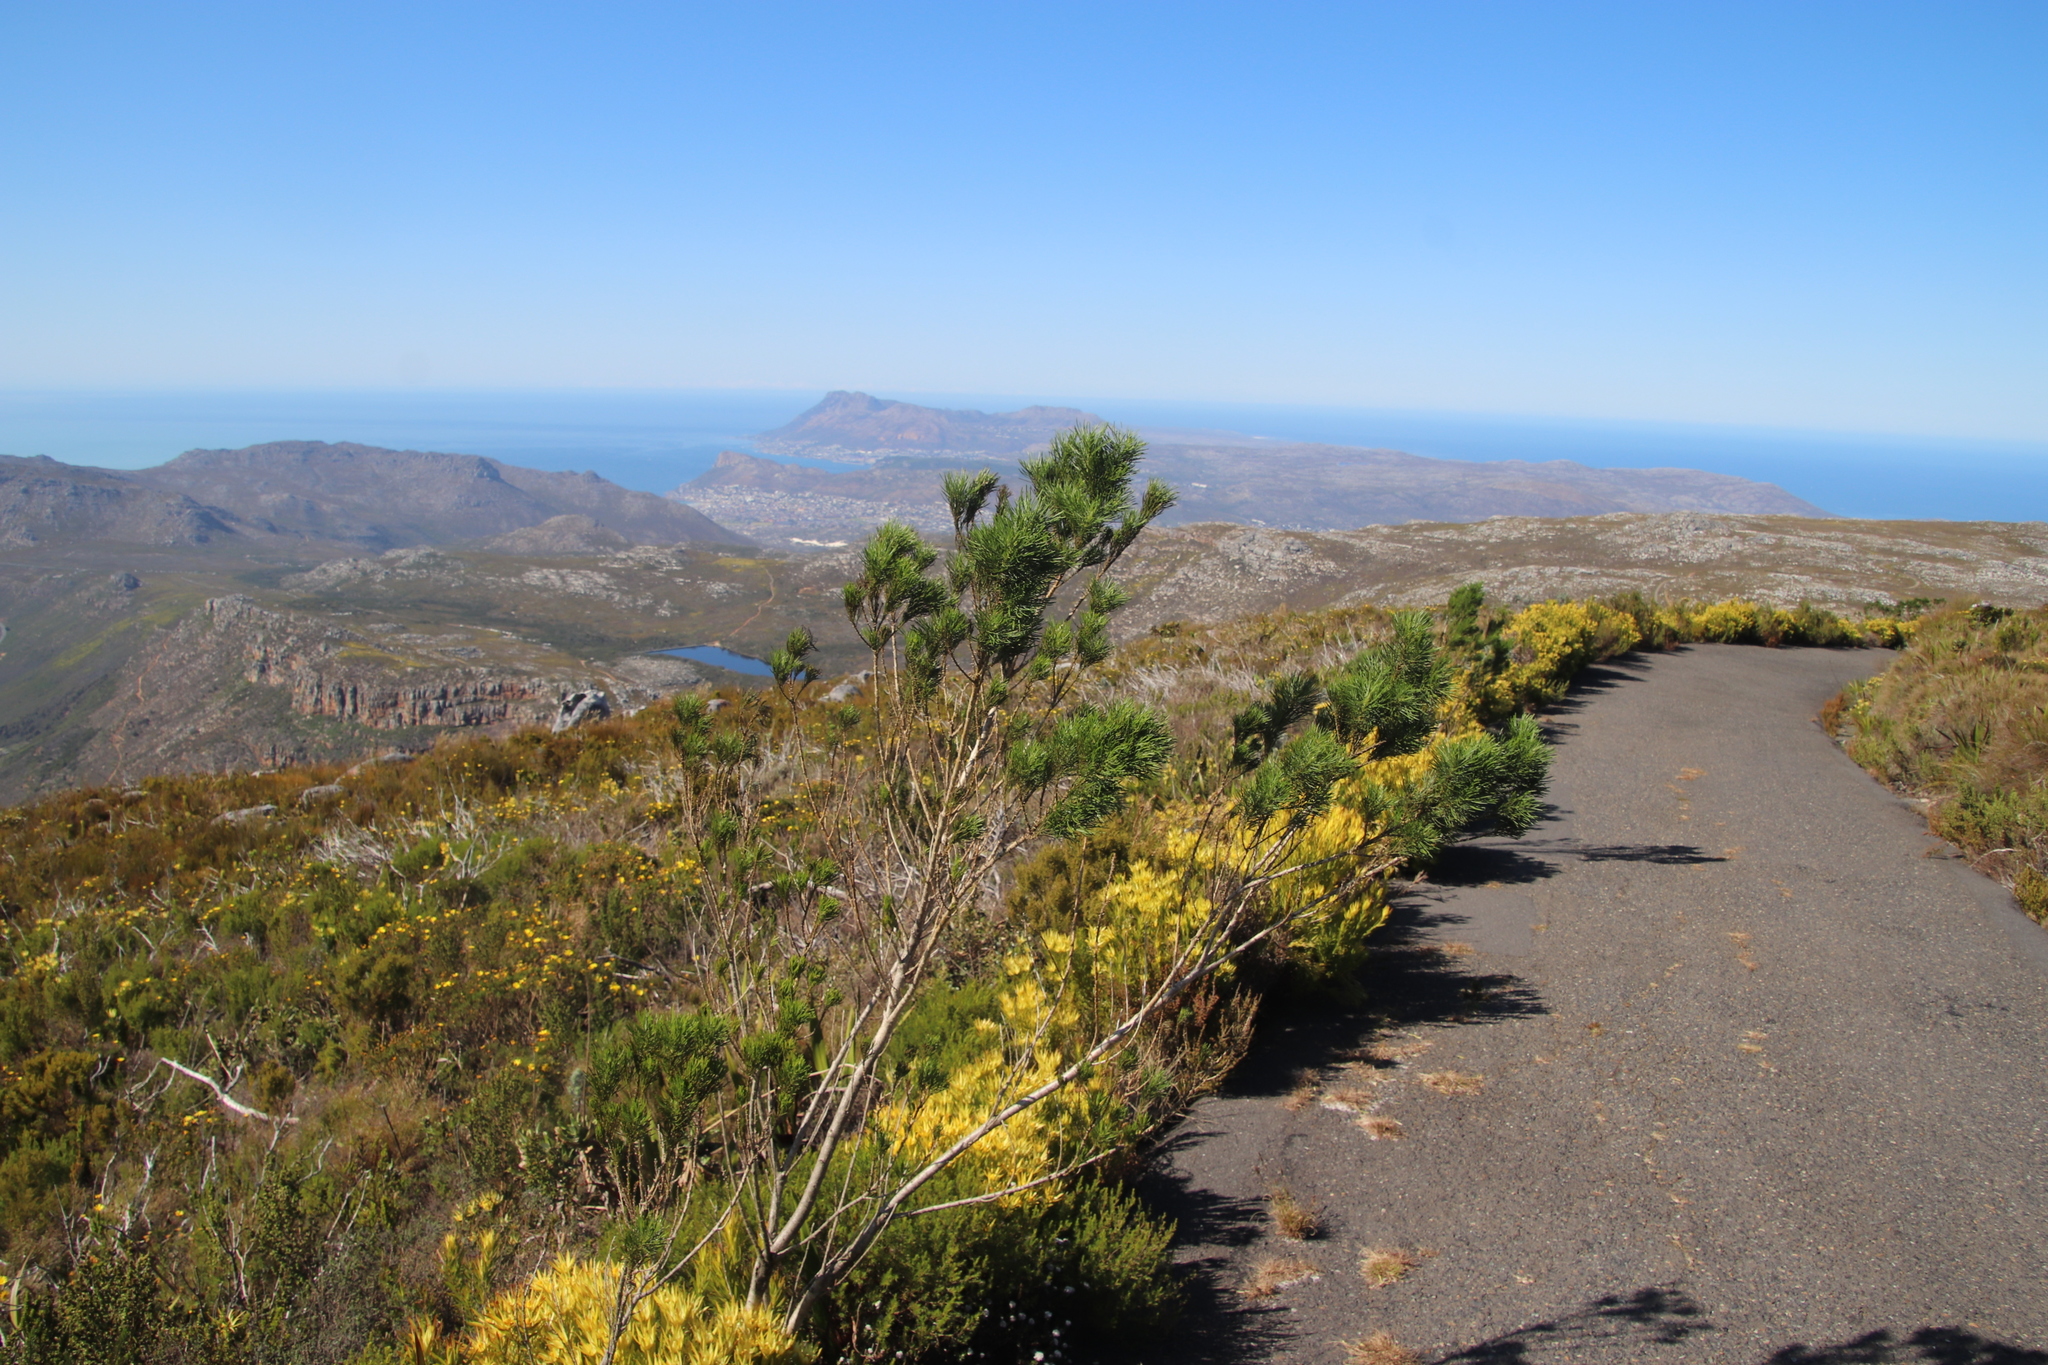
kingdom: Plantae
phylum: Tracheophyta
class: Magnoliopsida
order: Fabales
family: Fabaceae
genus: Psoralea
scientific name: Psoralea pinnata
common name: African scurfpea
